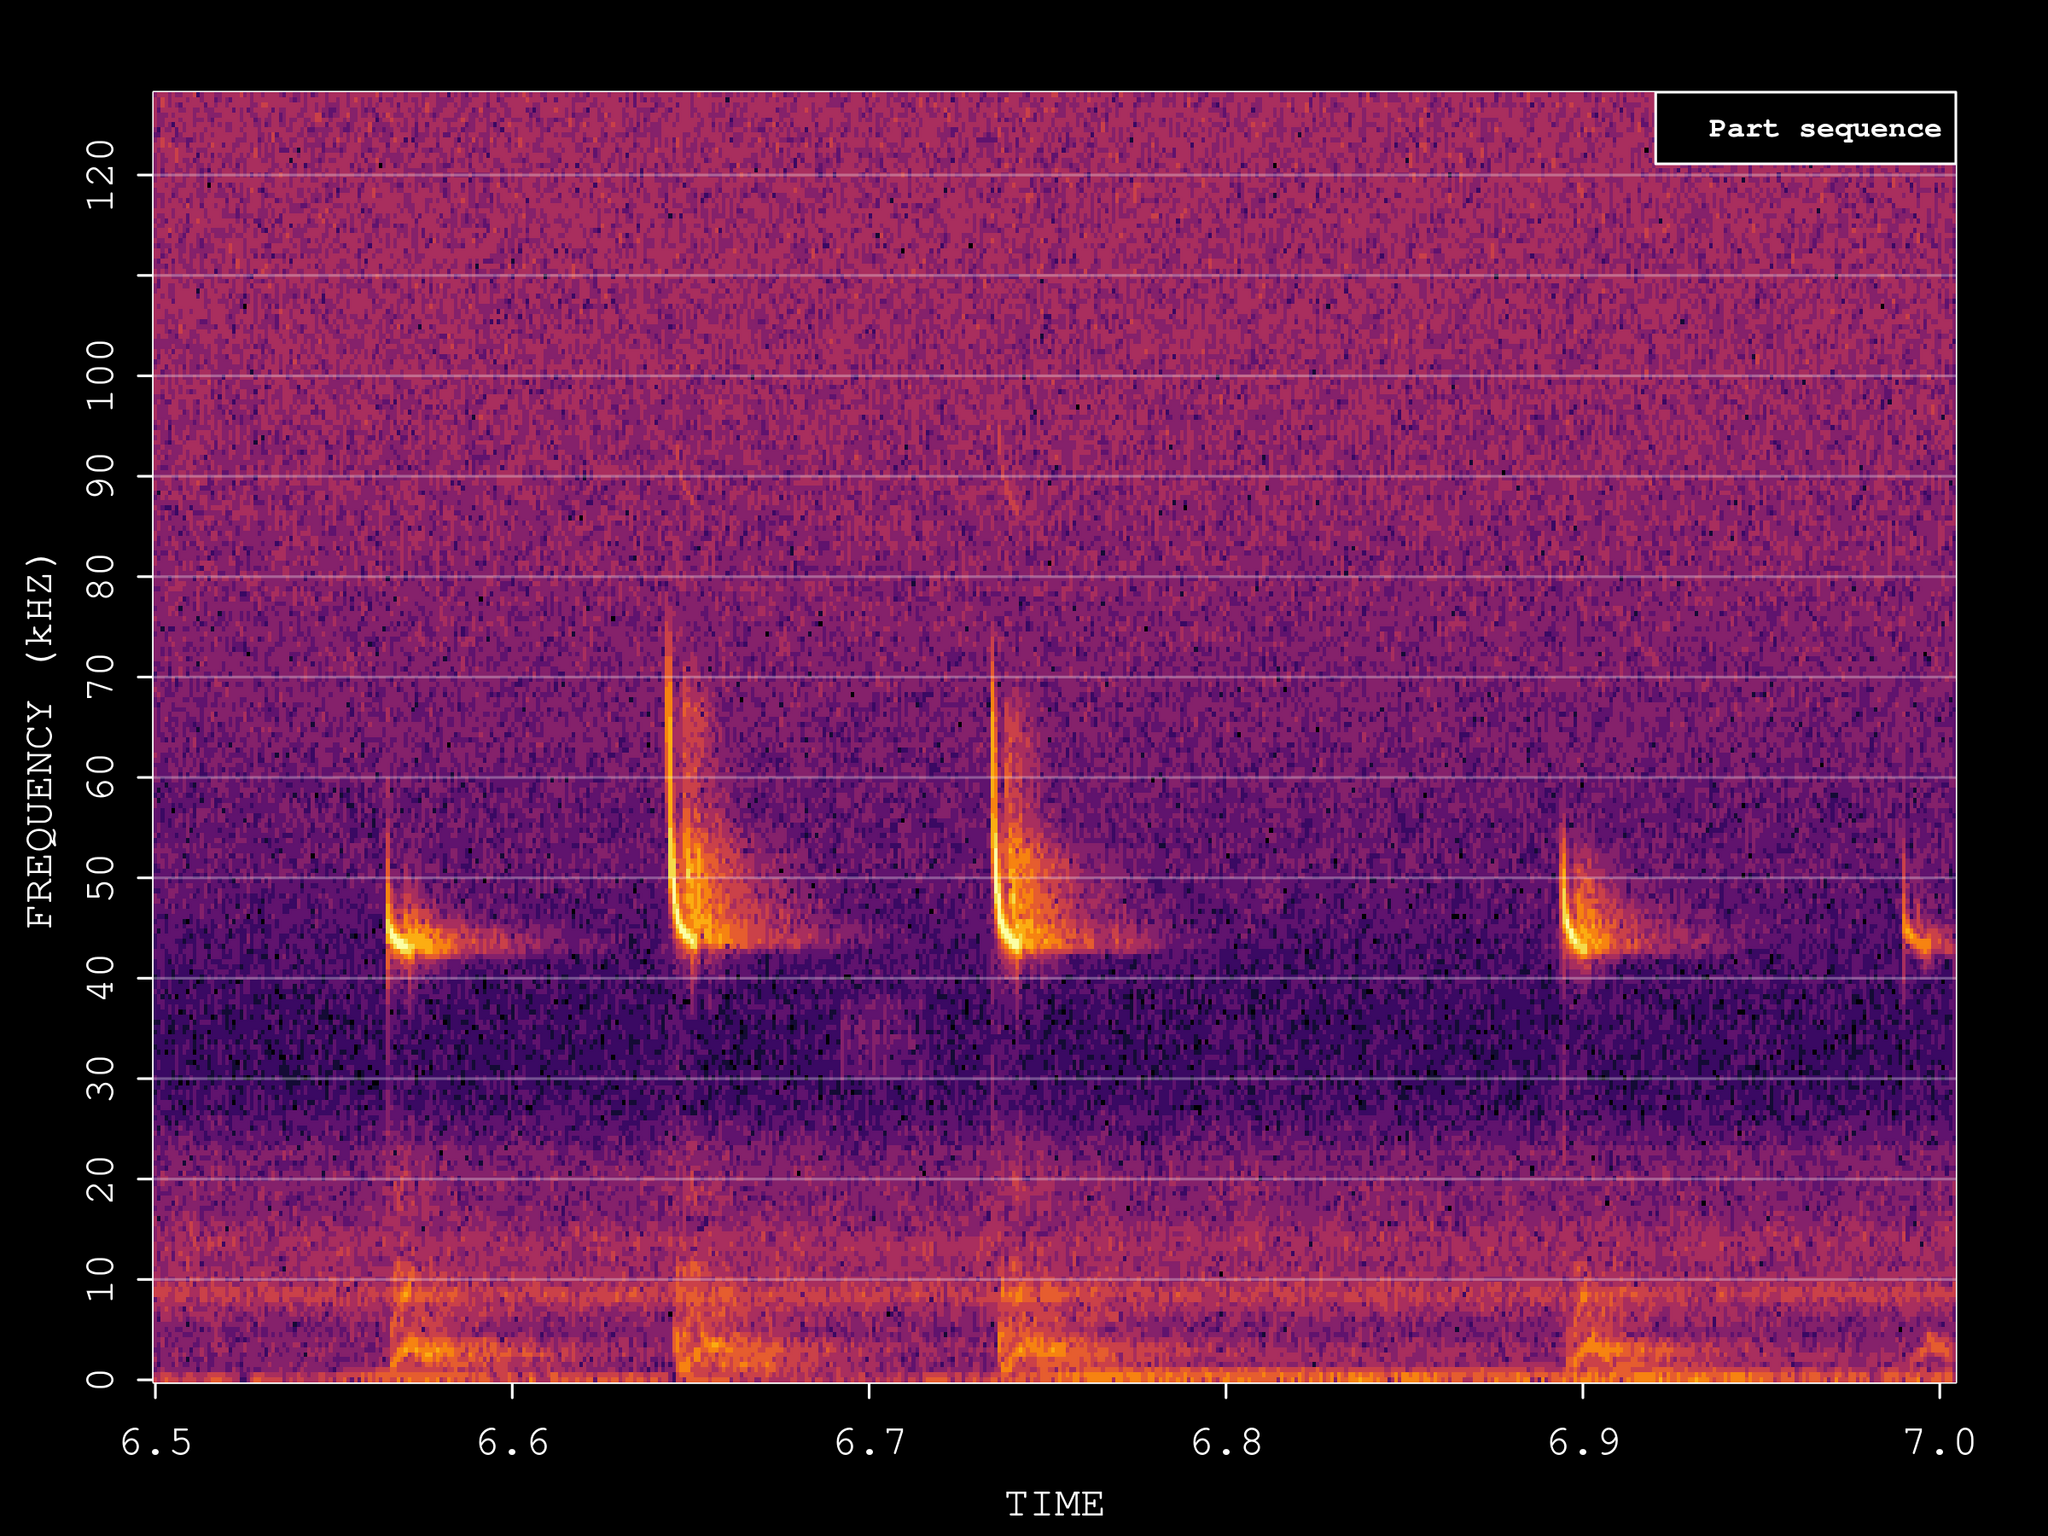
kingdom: Animalia
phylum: Chordata
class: Mammalia
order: Chiroptera
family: Vespertilionidae
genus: Pipistrellus
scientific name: Pipistrellus pipistrellus
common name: Common pipistrelle
